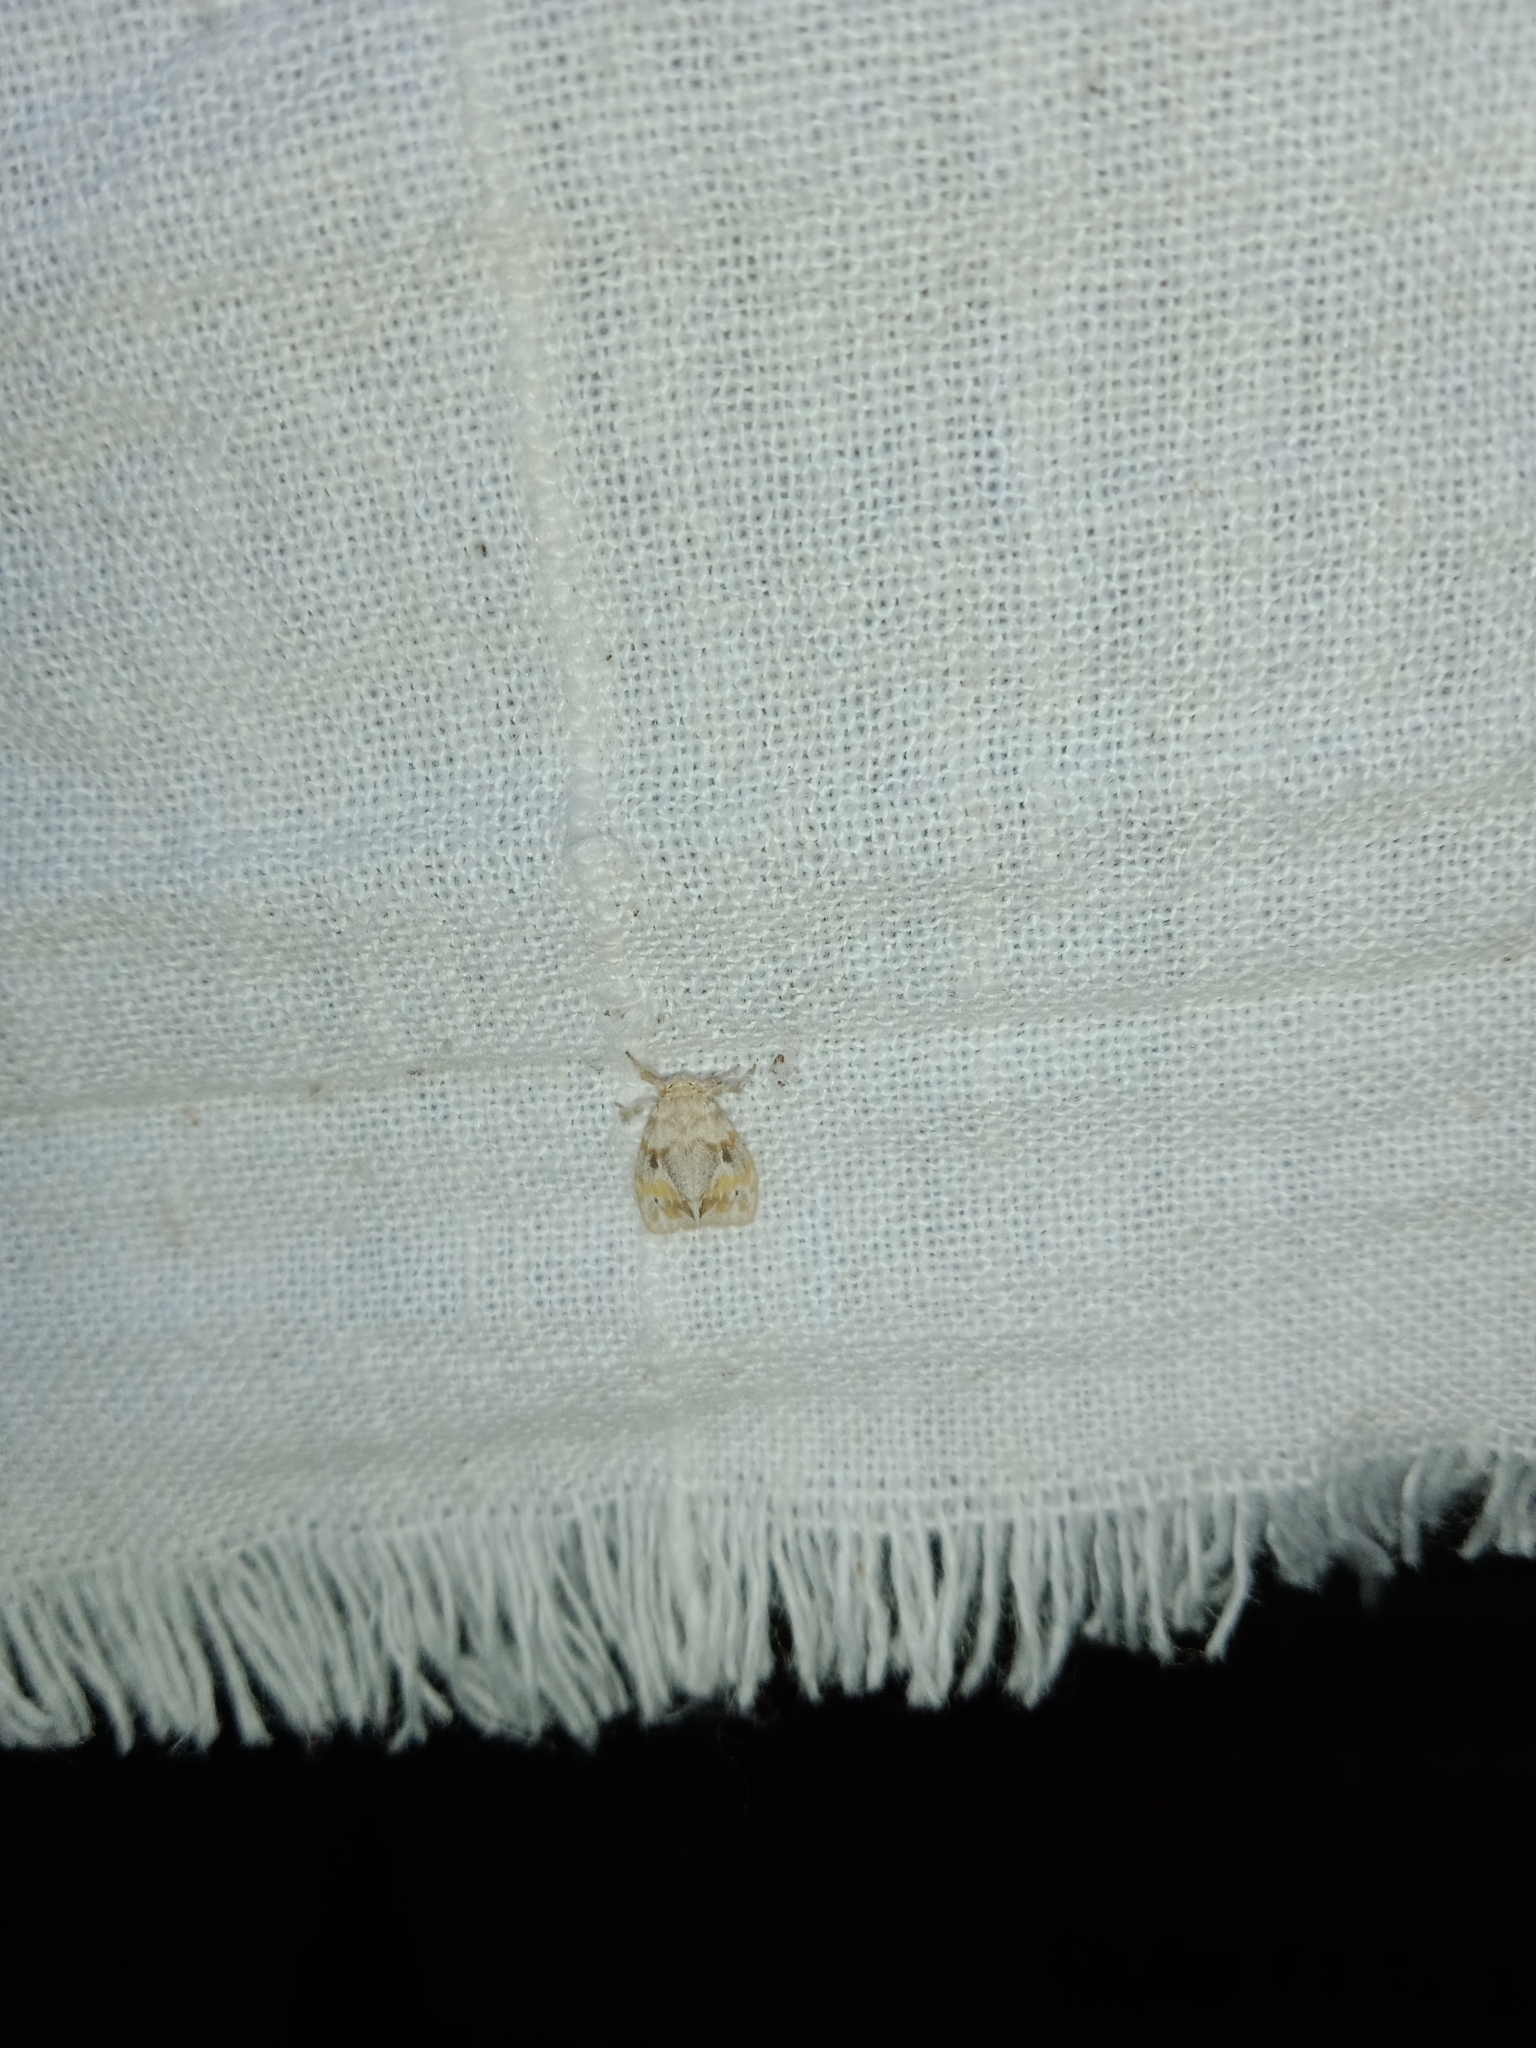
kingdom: Animalia
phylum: Arthropoda
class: Insecta
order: Lepidoptera
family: Erebidae
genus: Nudaria
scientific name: Nudaria diaphanella
